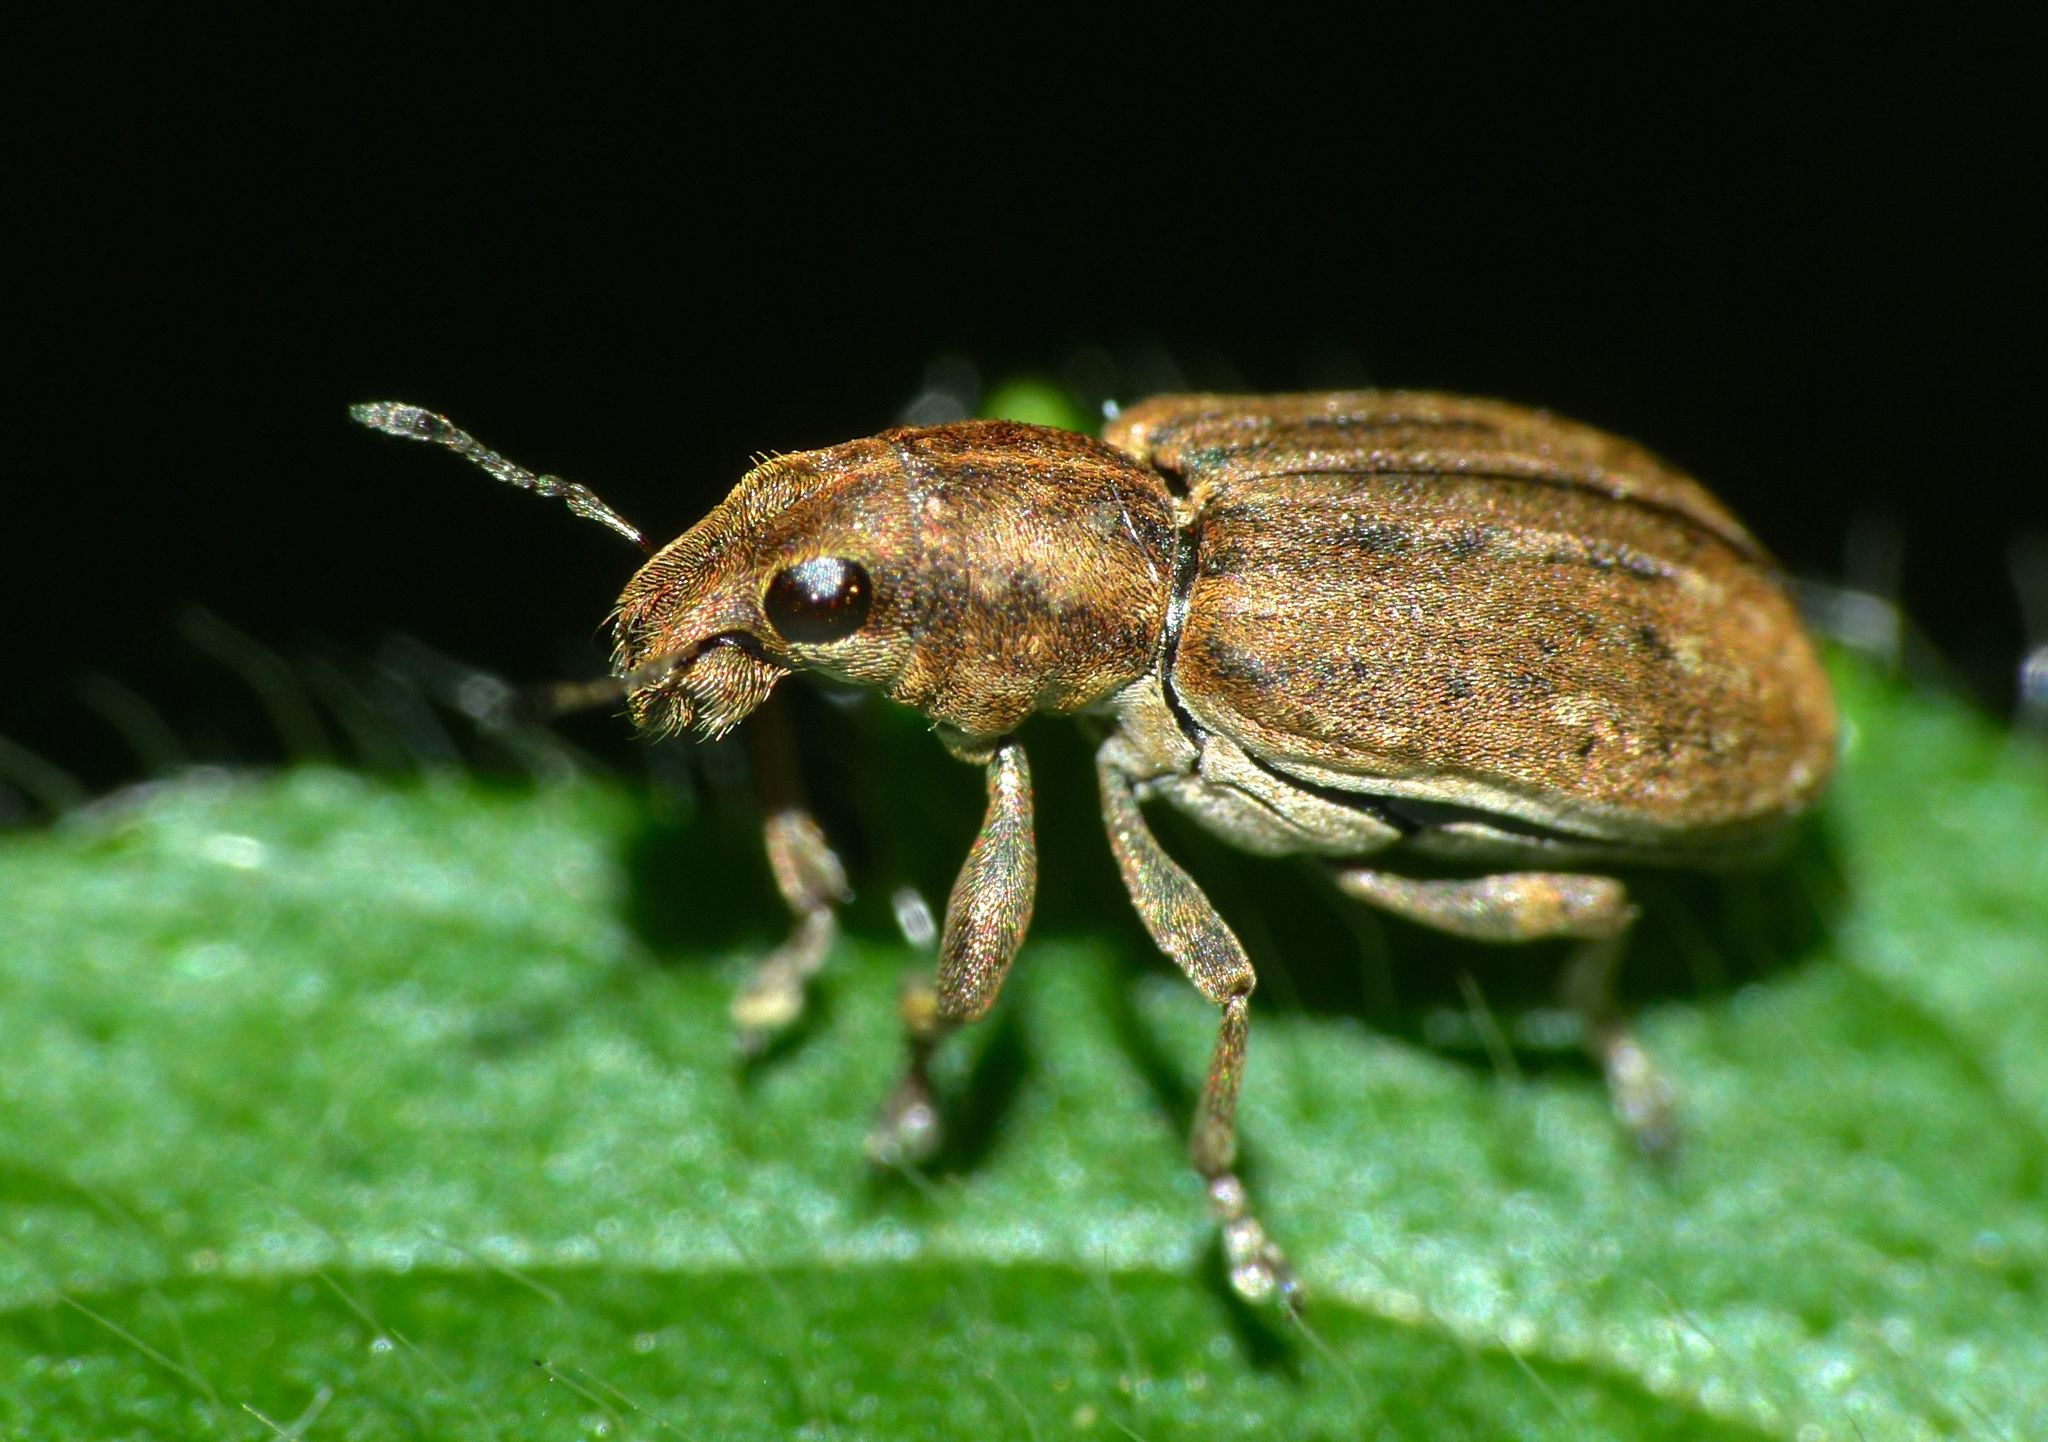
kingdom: Animalia
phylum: Arthropoda
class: Insecta
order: Coleoptera
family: Curculionidae
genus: Sitona
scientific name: Sitona obsoletus
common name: Weevil
